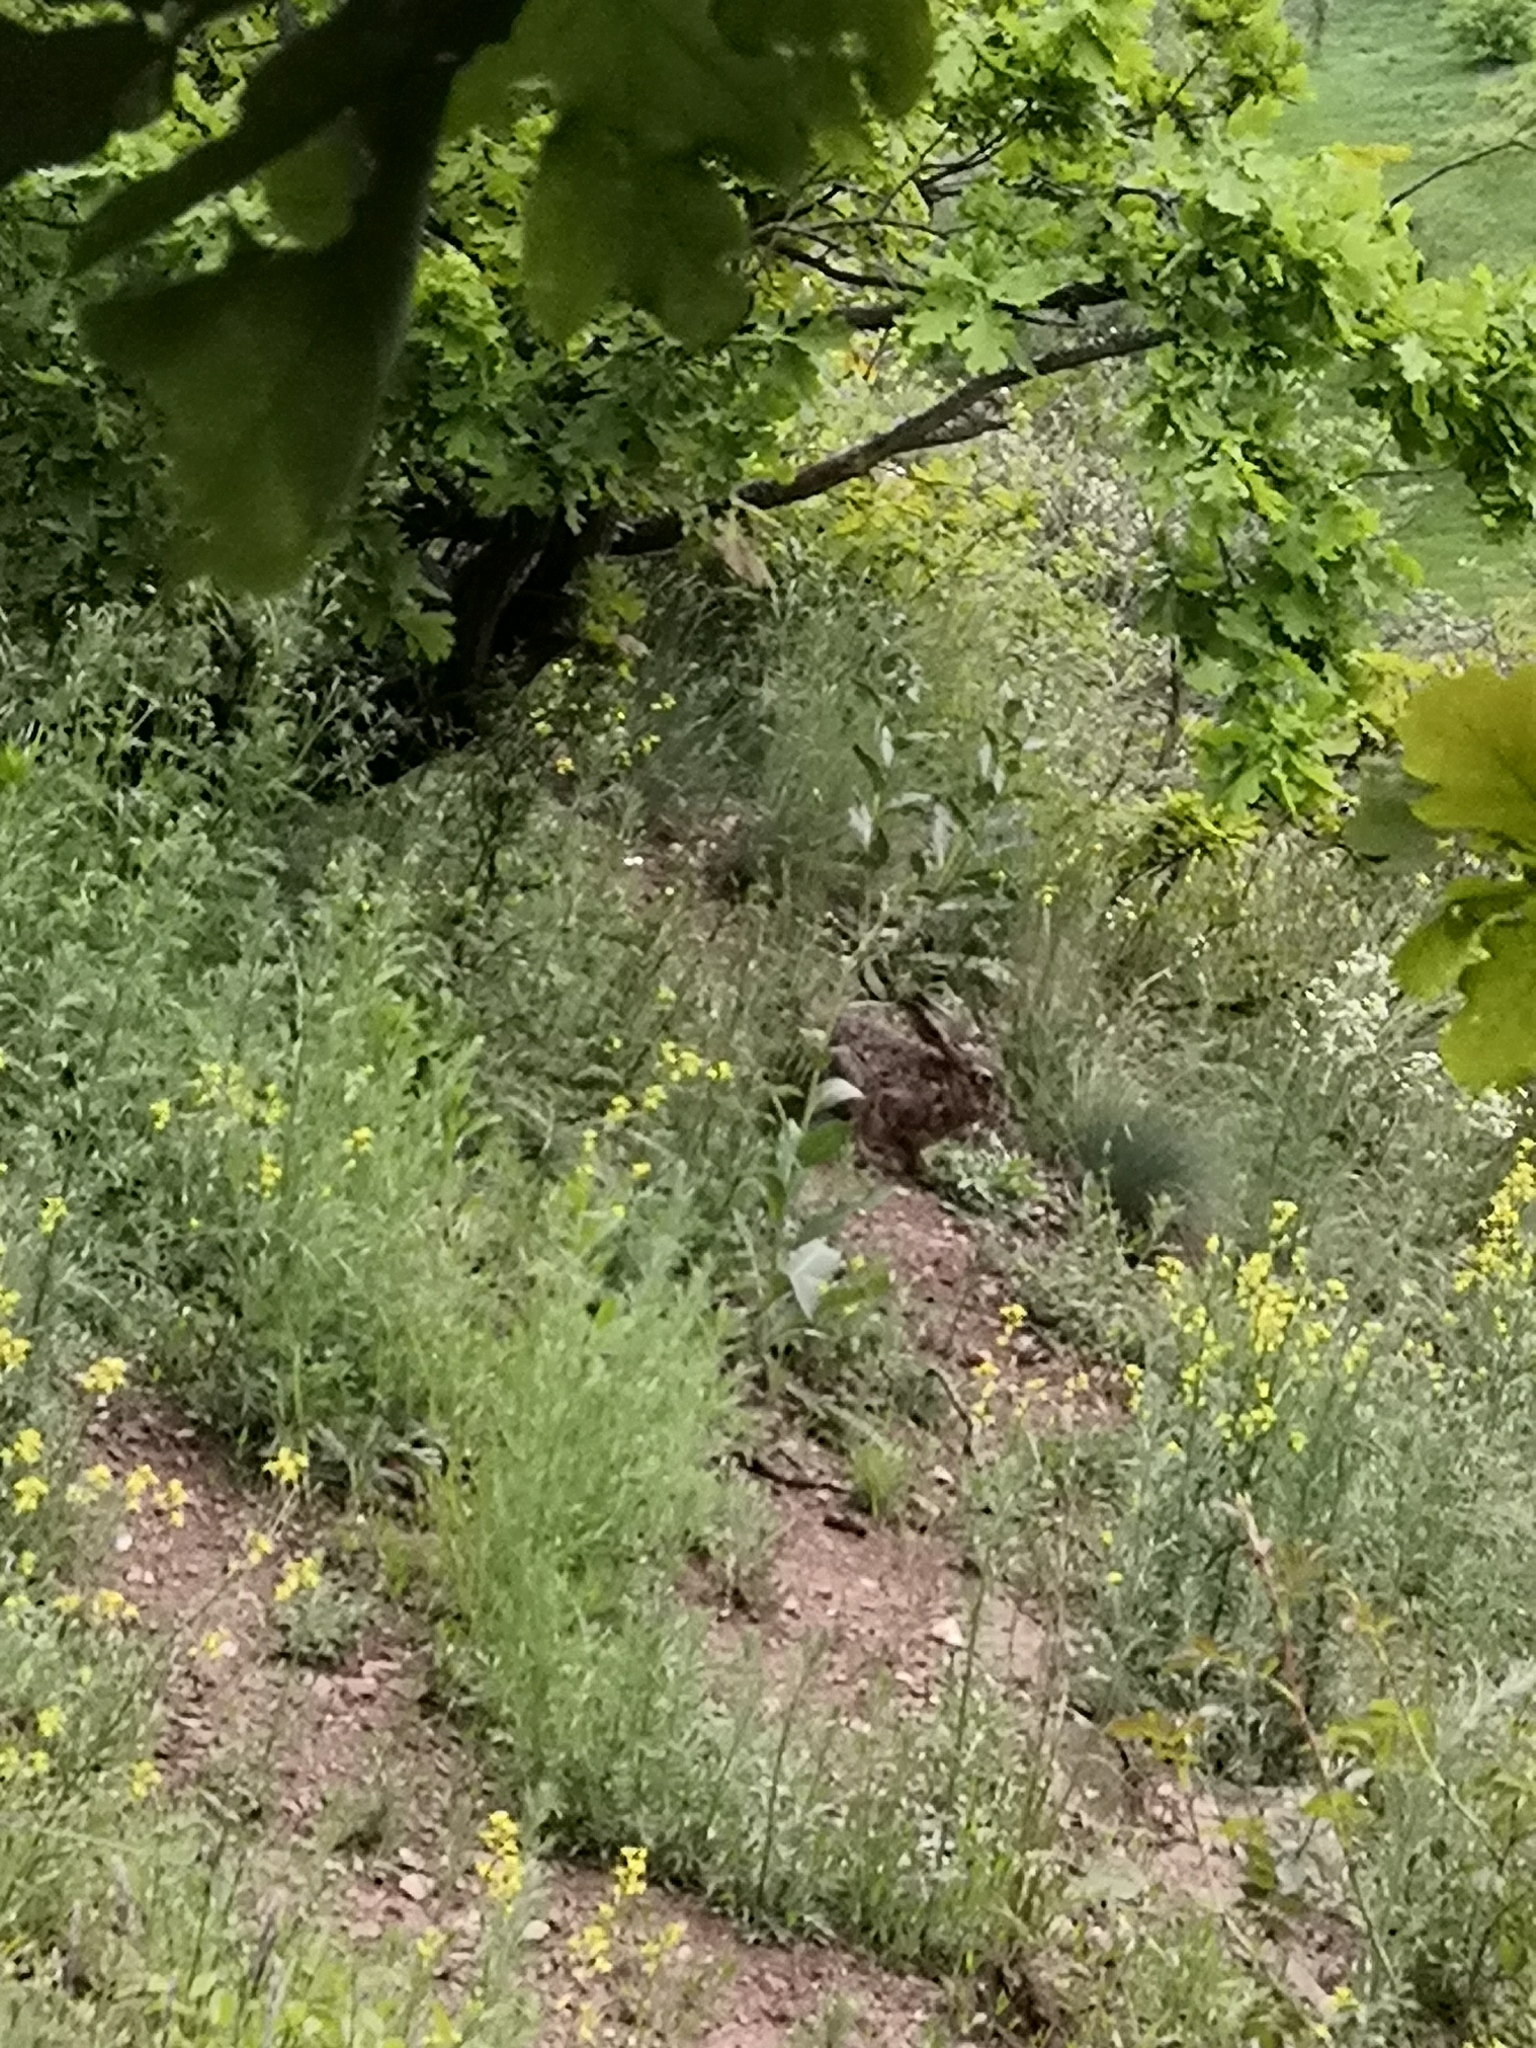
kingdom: Animalia
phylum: Chordata
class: Mammalia
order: Lagomorpha
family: Leporidae
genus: Lepus
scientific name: Lepus europaeus
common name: European hare
